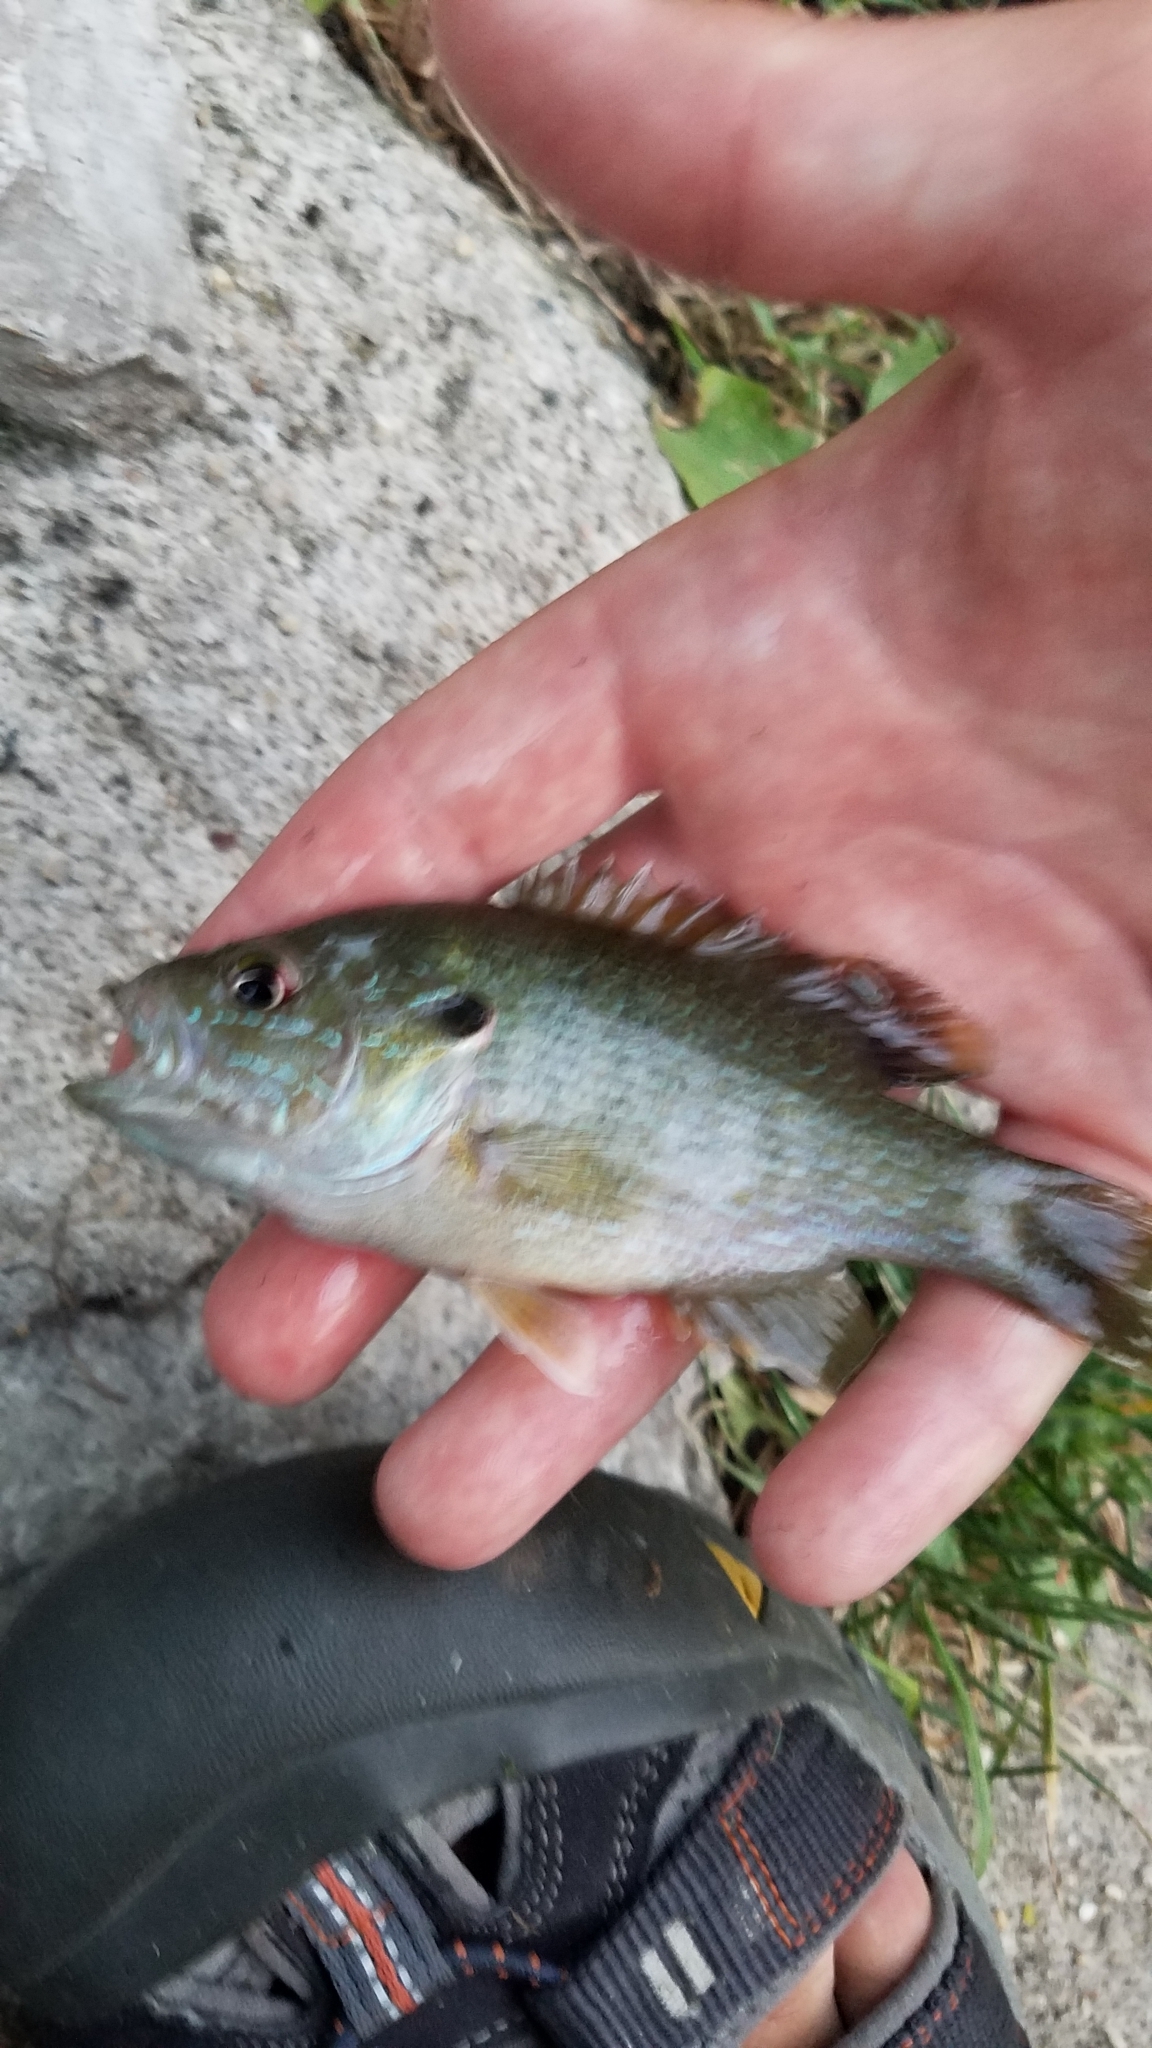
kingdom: Animalia
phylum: Chordata
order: Perciformes
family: Centrarchidae
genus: Lepomis
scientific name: Lepomis cyanellus
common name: Green sunfish
